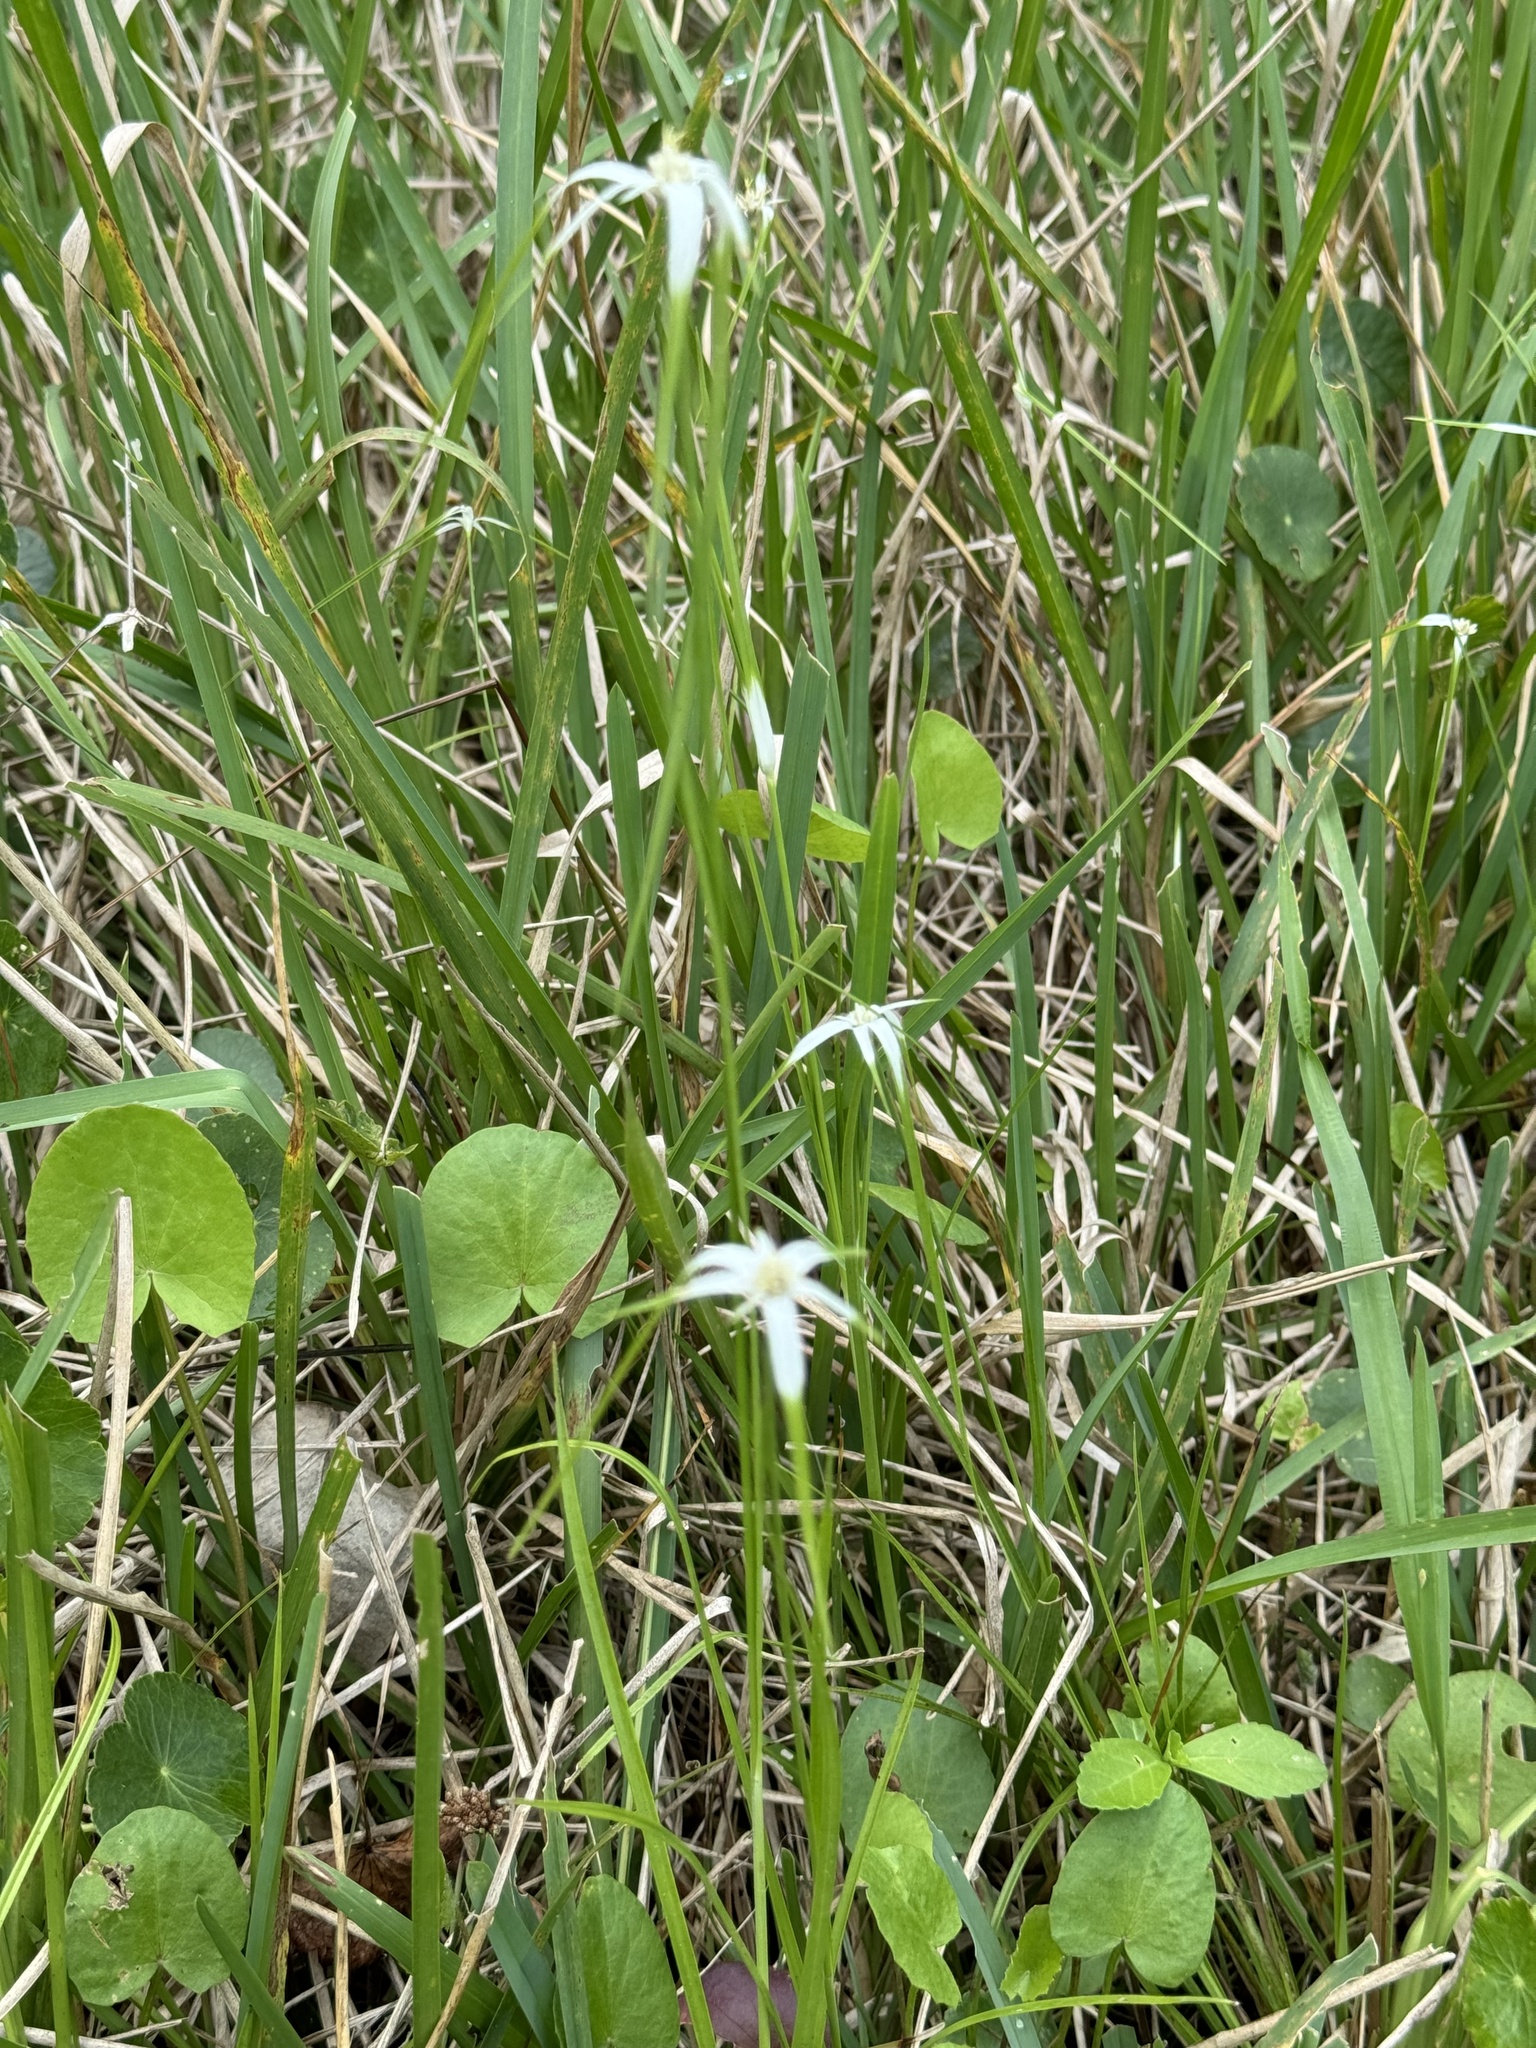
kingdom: Plantae
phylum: Tracheophyta
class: Liliopsida
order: Poales
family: Cyperaceae
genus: Rhynchospora
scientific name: Rhynchospora colorata
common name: Star sedge
